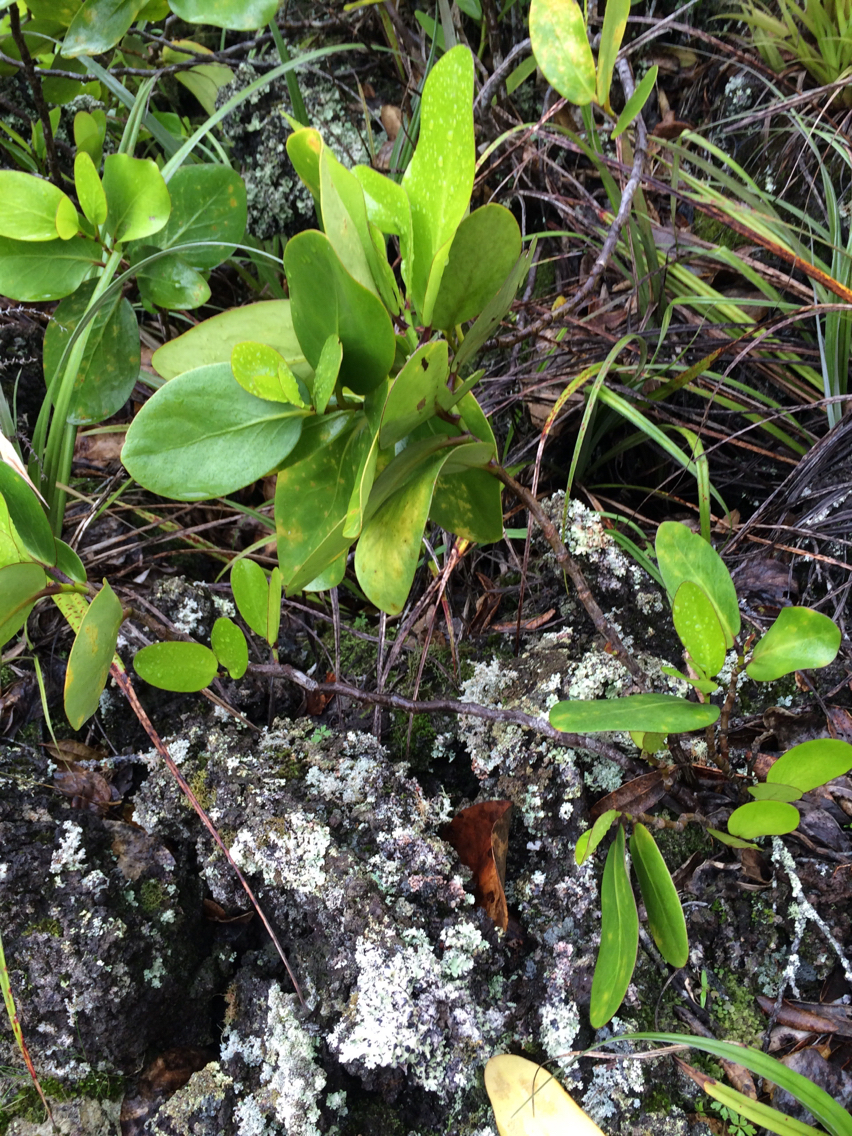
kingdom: Plantae
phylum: Tracheophyta
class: Magnoliopsida
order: Apiales
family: Griseliniaceae
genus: Griselinia
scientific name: Griselinia lucida
